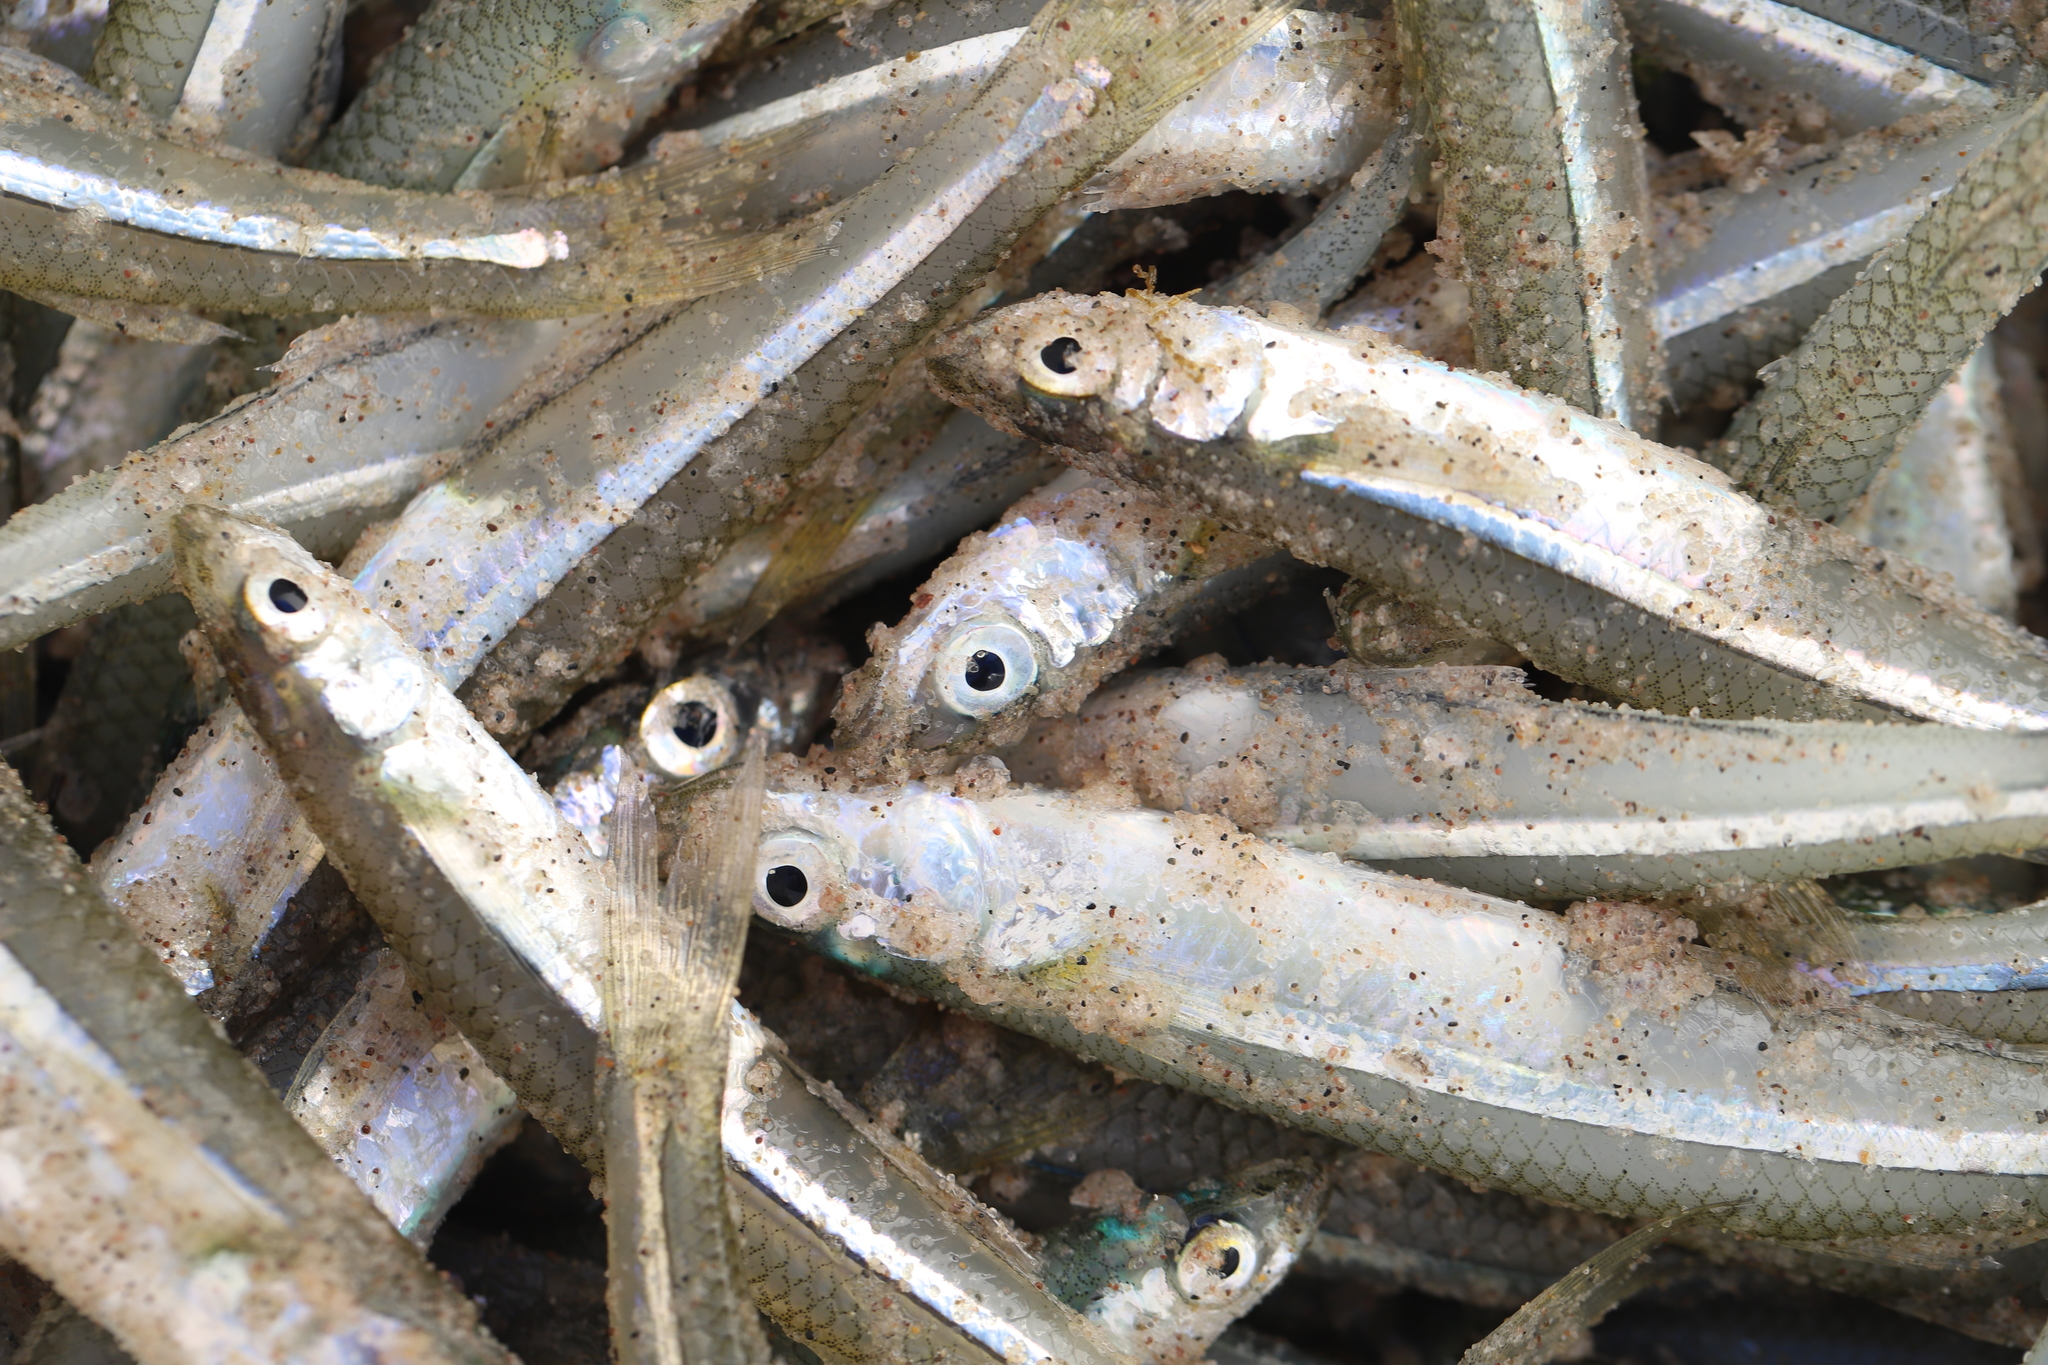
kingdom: Animalia
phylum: Chordata
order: Atheriniformes
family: Atherinopsidae
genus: Menidia
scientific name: Menidia menidia
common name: Atlantic silverside
